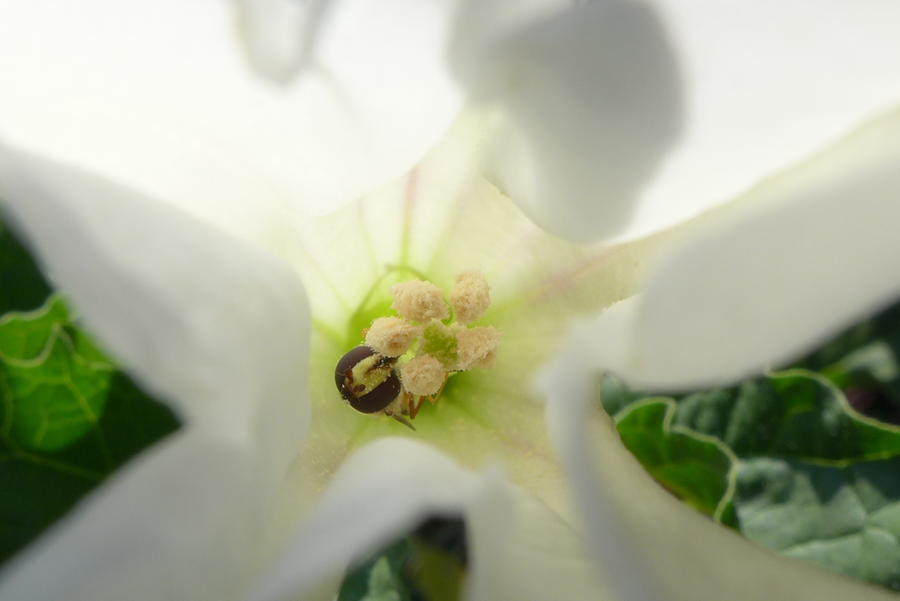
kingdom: Plantae
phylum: Tracheophyta
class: Magnoliopsida
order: Solanales
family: Solanaceae
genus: Datura
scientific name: Datura stramonium
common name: Thorn-apple
